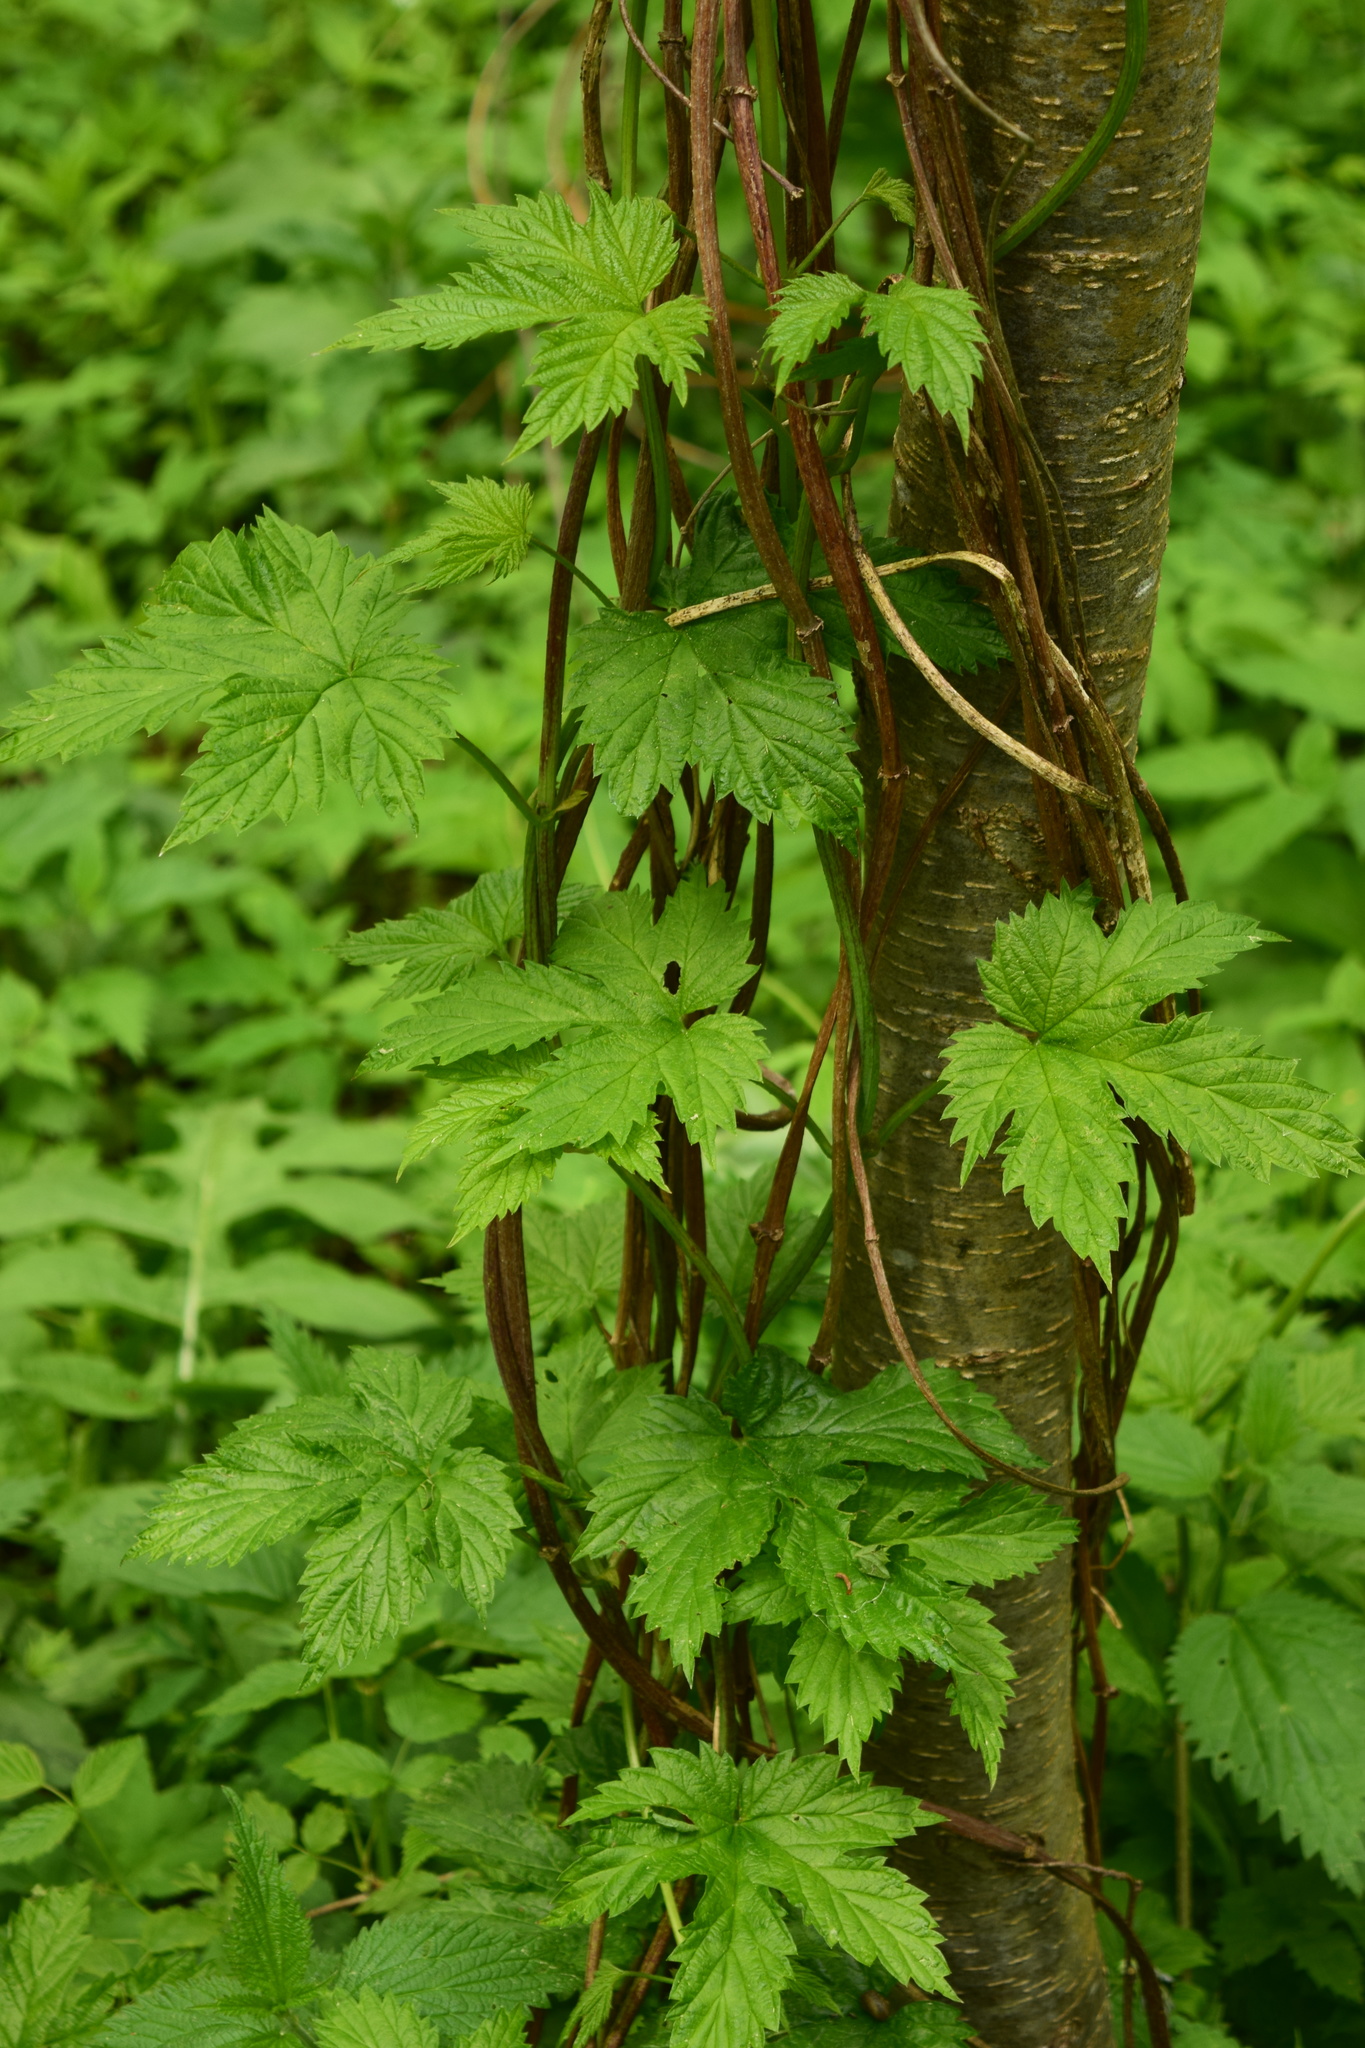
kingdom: Plantae
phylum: Tracheophyta
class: Magnoliopsida
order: Rosales
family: Cannabaceae
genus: Humulus
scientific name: Humulus lupulus
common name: Hop
